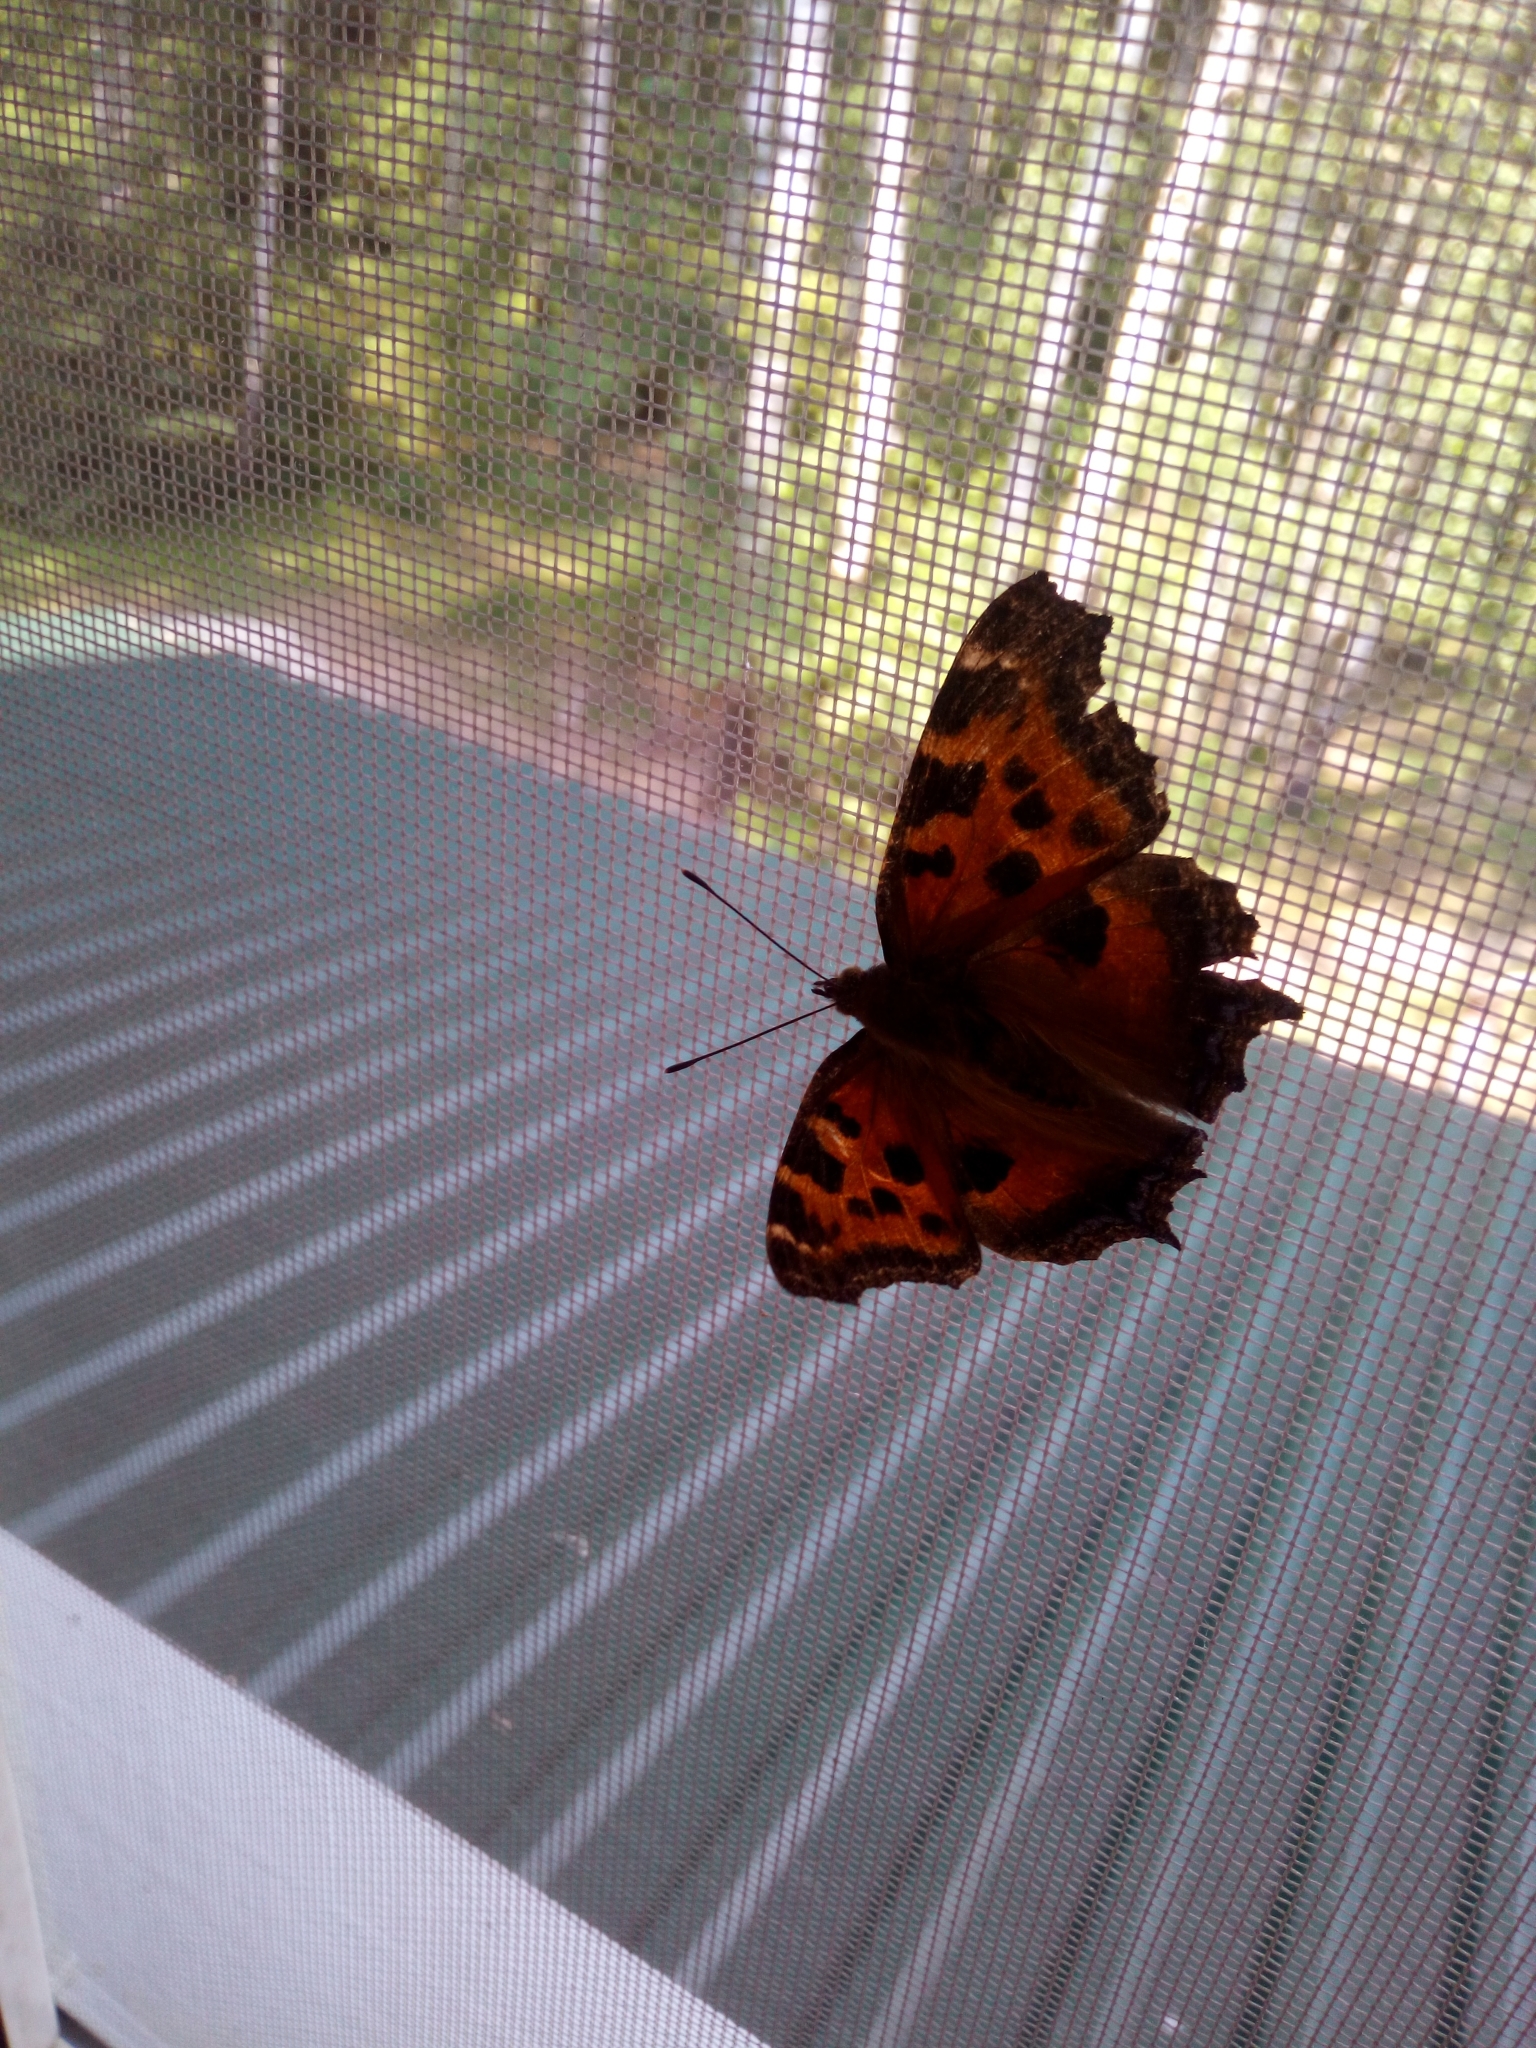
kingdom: Animalia
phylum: Arthropoda
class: Insecta
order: Lepidoptera
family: Nymphalidae
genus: Nymphalis
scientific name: Nymphalis xanthomelas
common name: Scarce tortoiseshell
